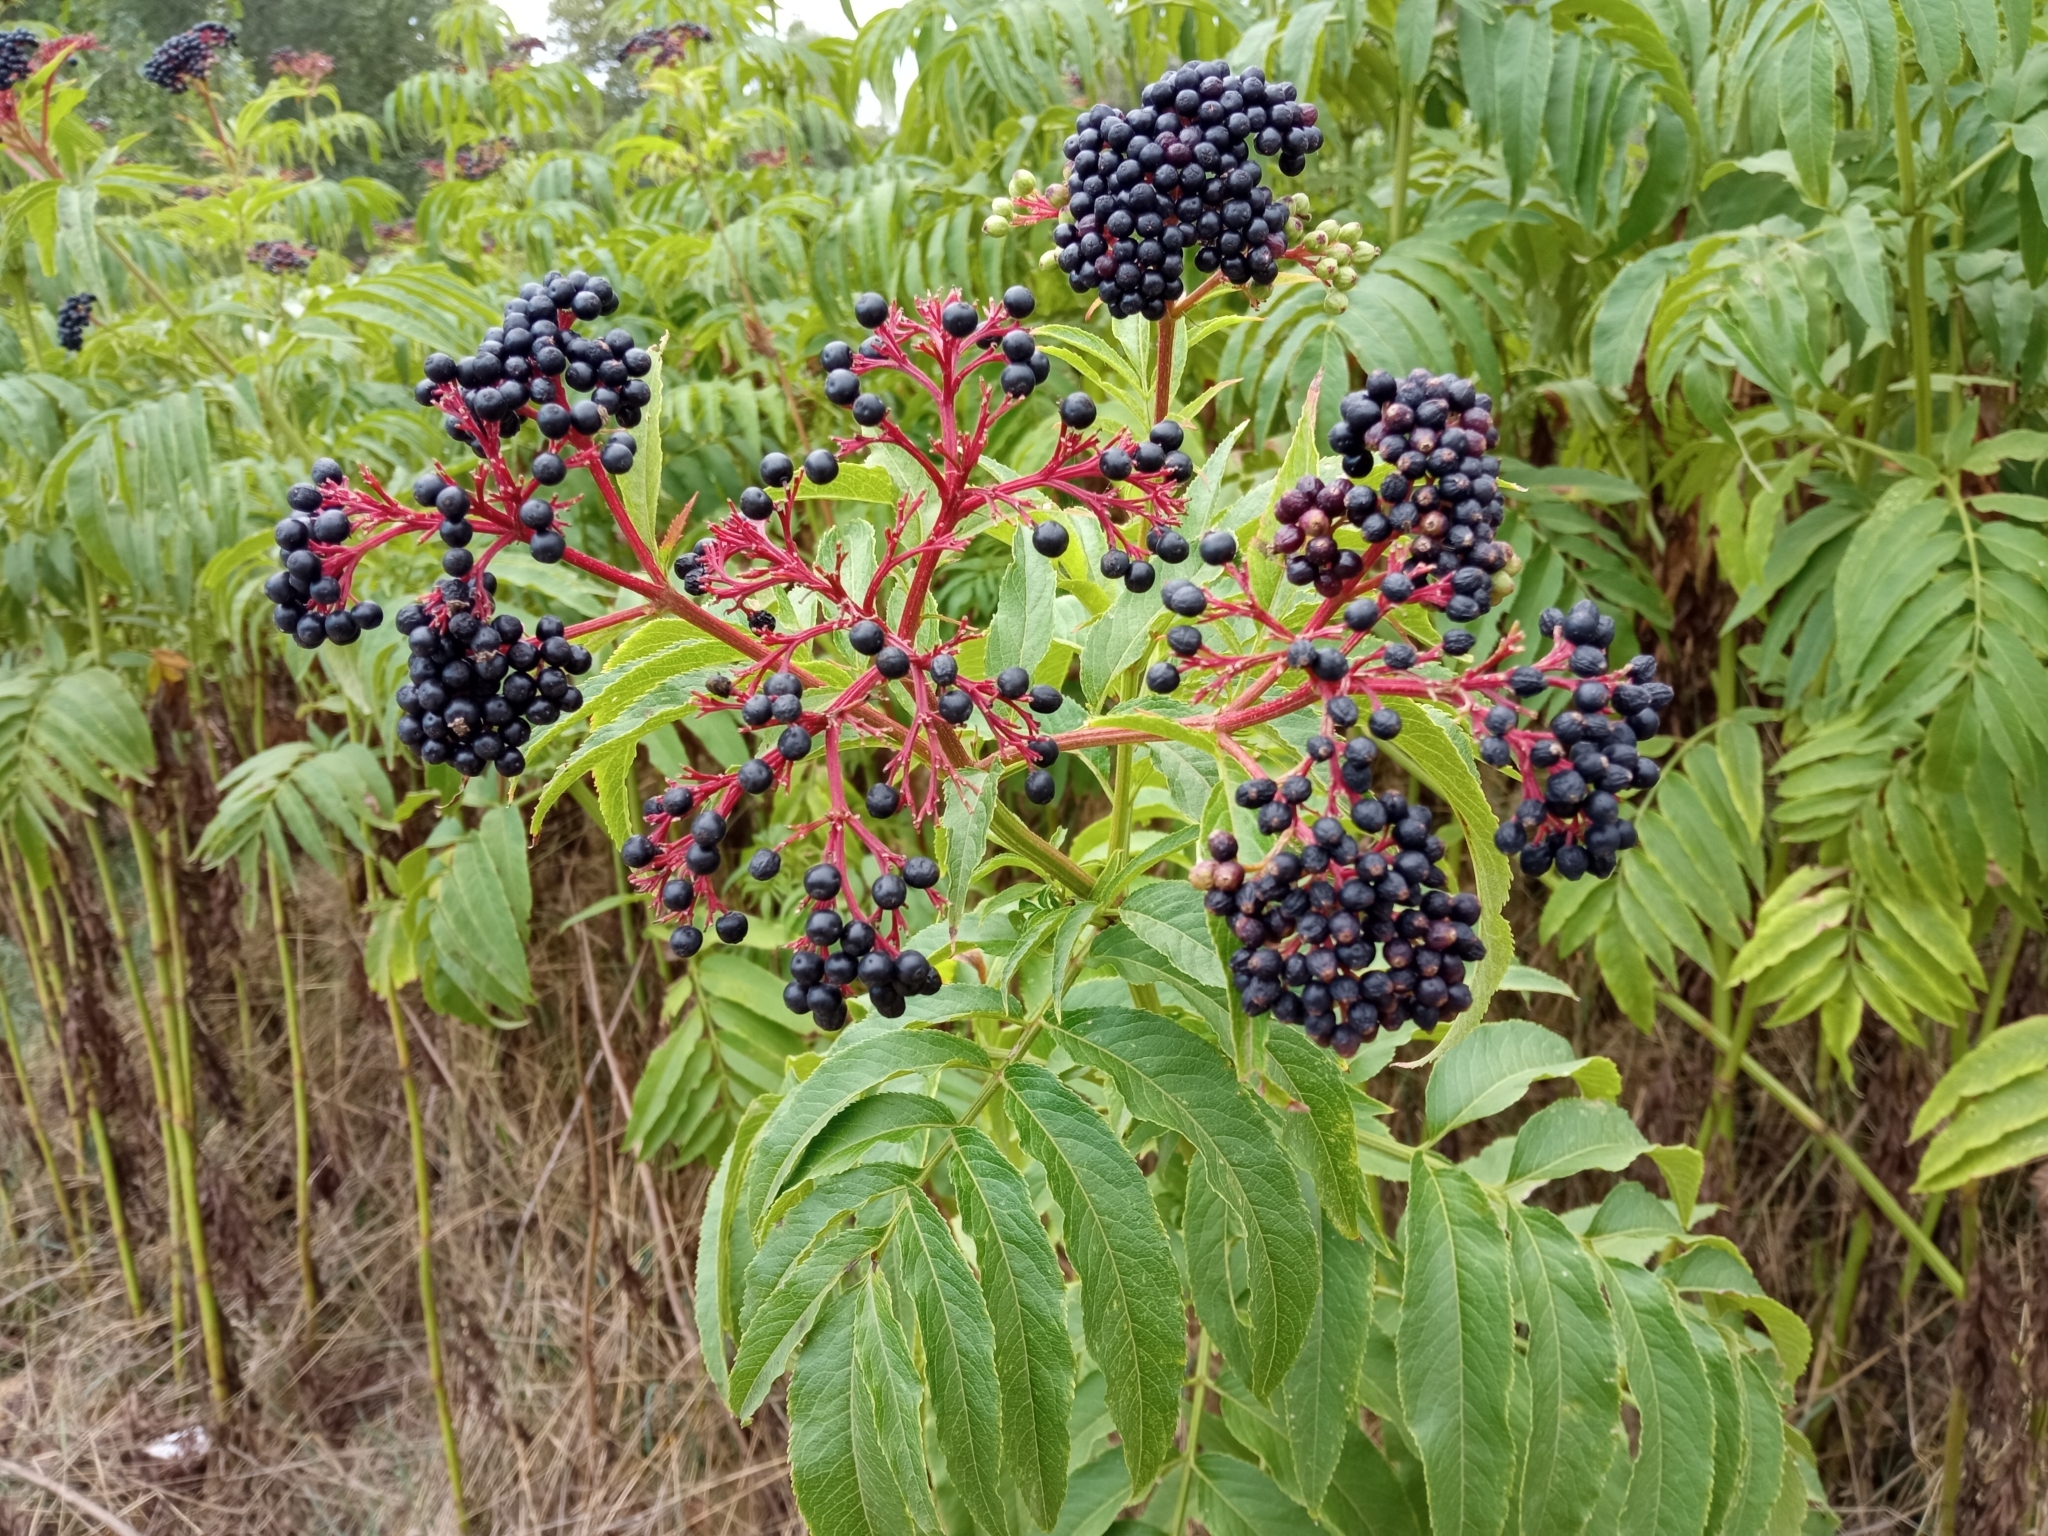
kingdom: Plantae
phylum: Tracheophyta
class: Magnoliopsida
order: Dipsacales
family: Viburnaceae
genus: Sambucus
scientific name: Sambucus ebulus
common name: Dwarf elder
